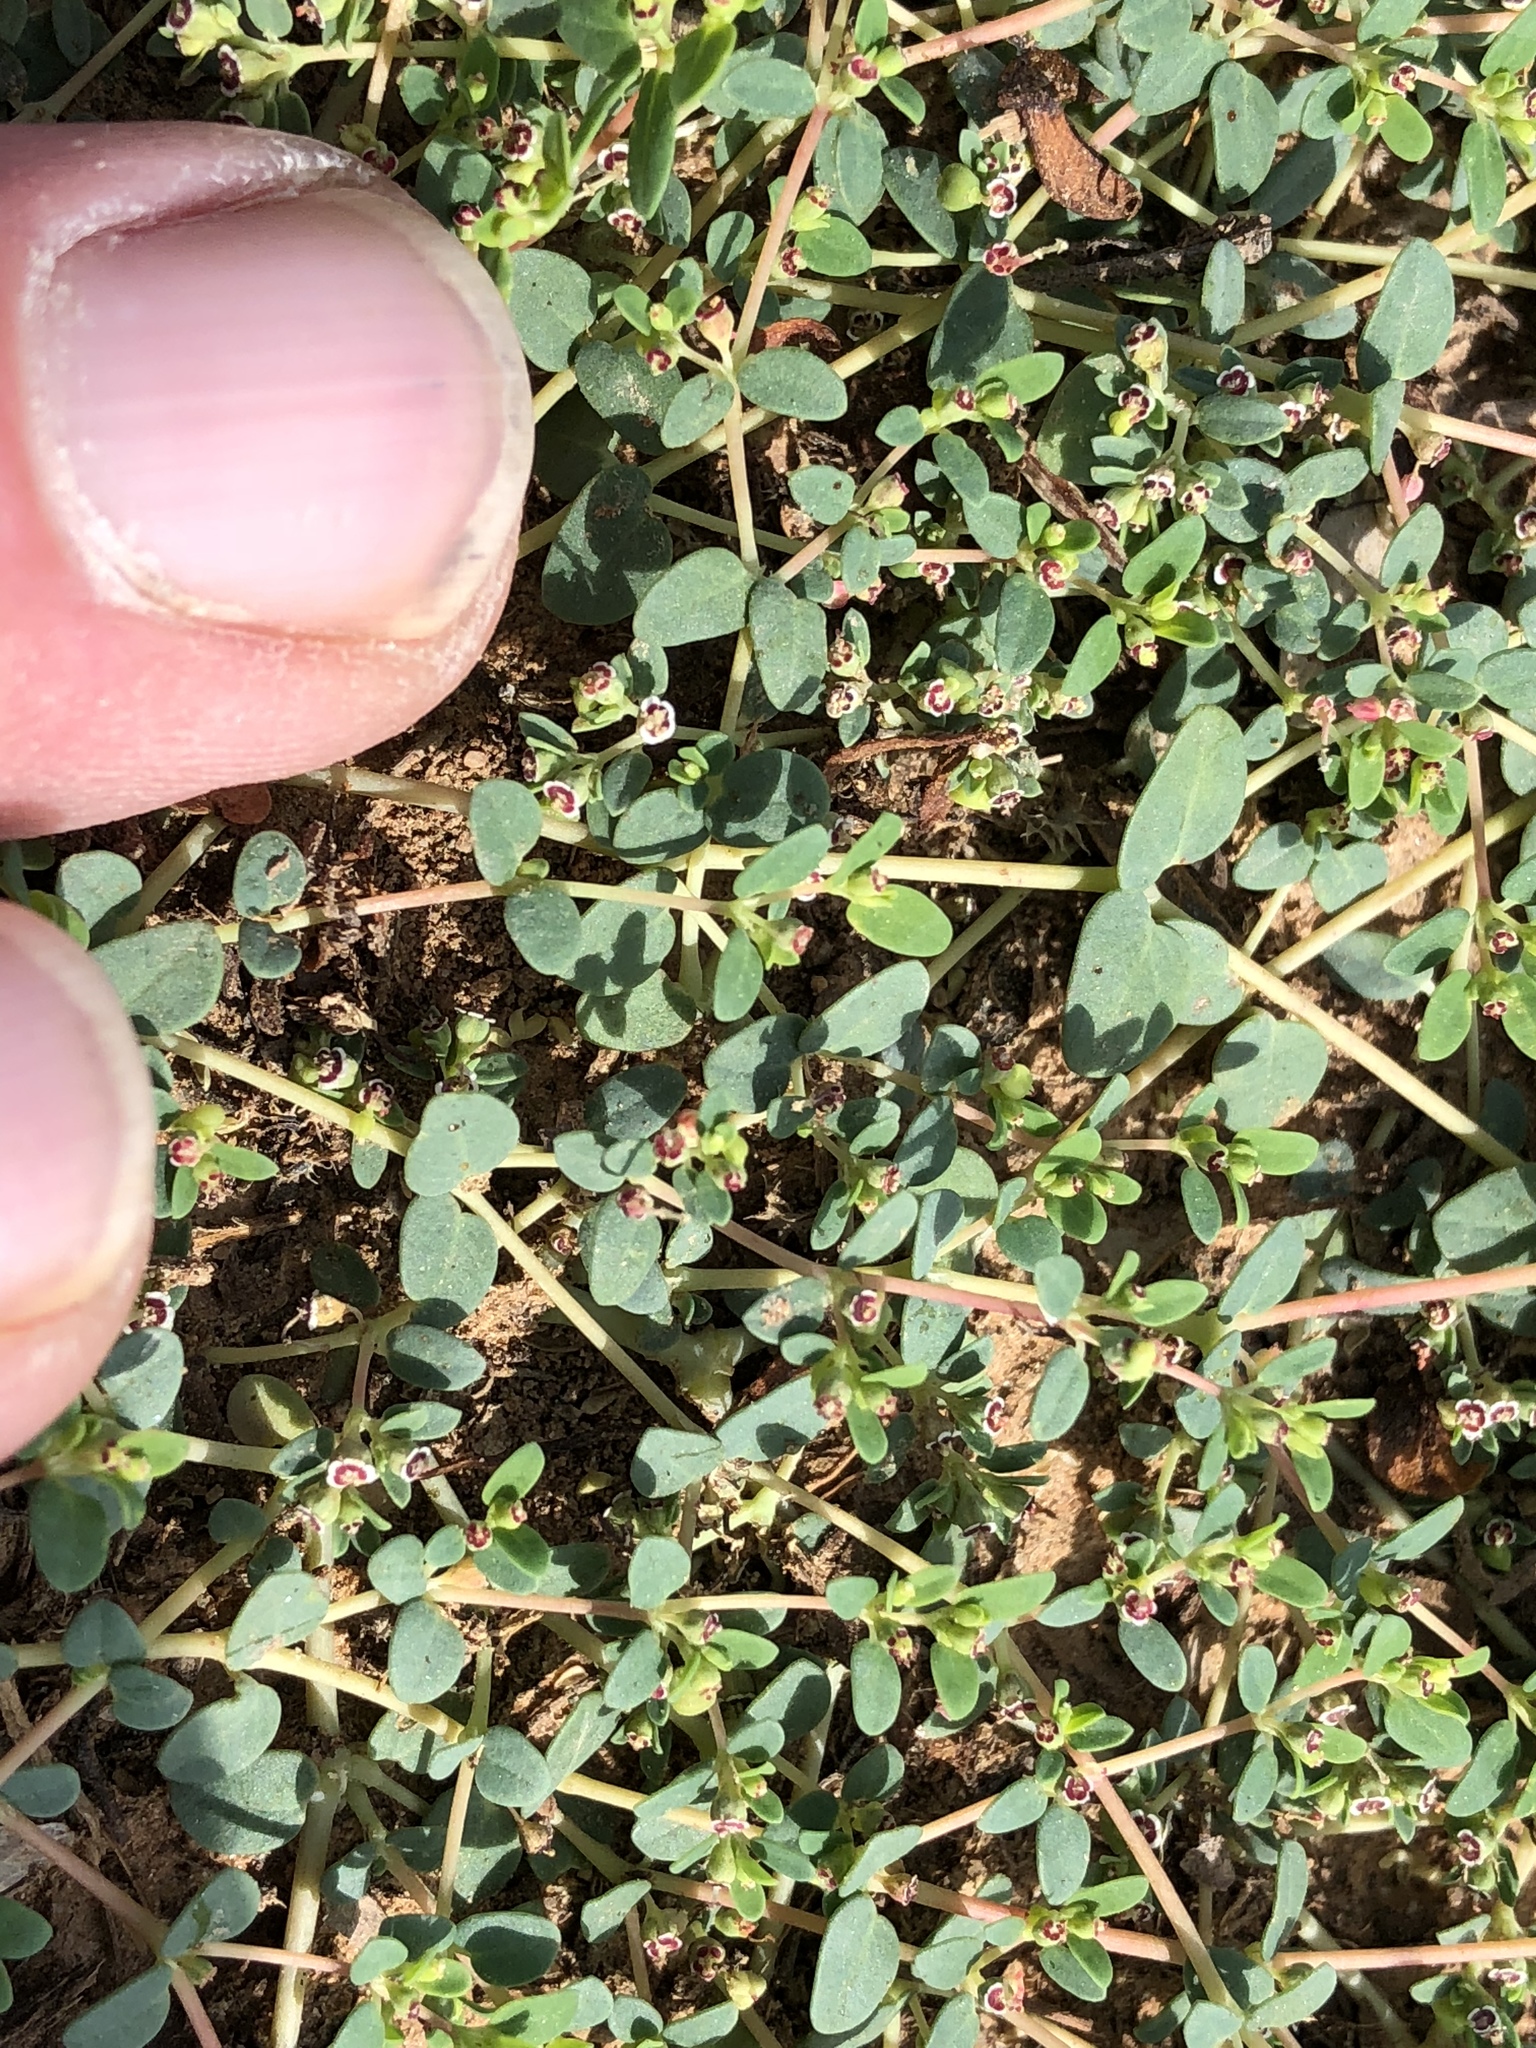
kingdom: Plantae
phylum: Tracheophyta
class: Magnoliopsida
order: Malpighiales
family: Euphorbiaceae
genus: Euphorbia
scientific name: Euphorbia polycarpa
